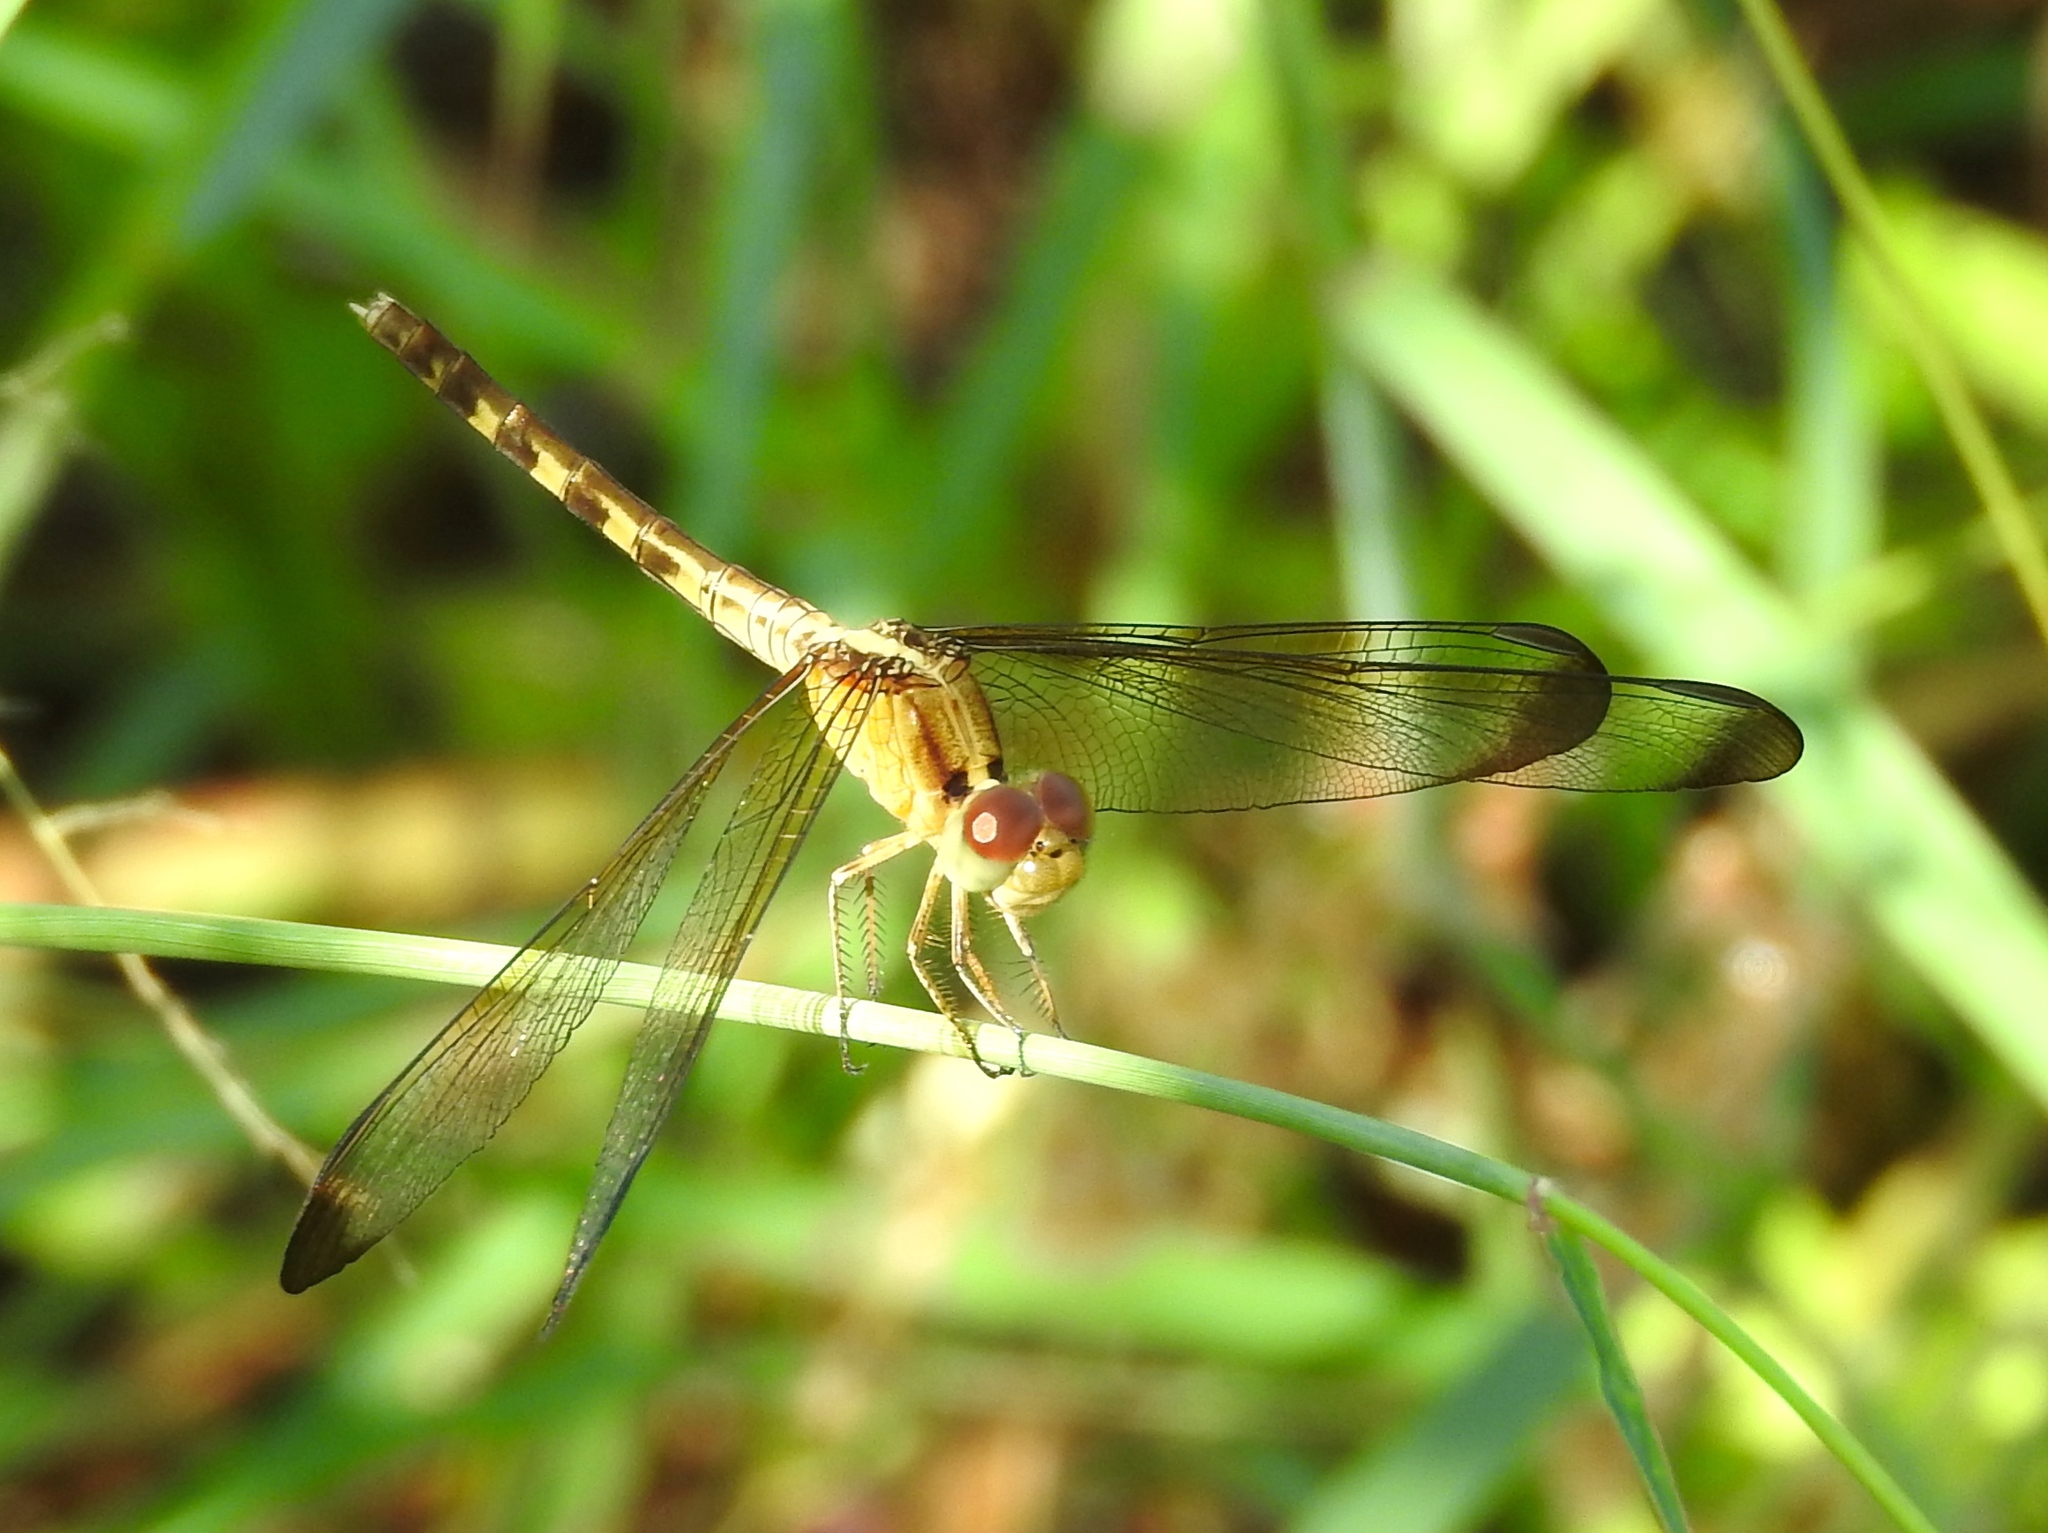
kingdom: Animalia
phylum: Arthropoda
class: Insecta
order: Odonata
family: Libellulidae
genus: Erythrodiplax
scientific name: Erythrodiplax funerea
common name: Black-winged dragonlet
